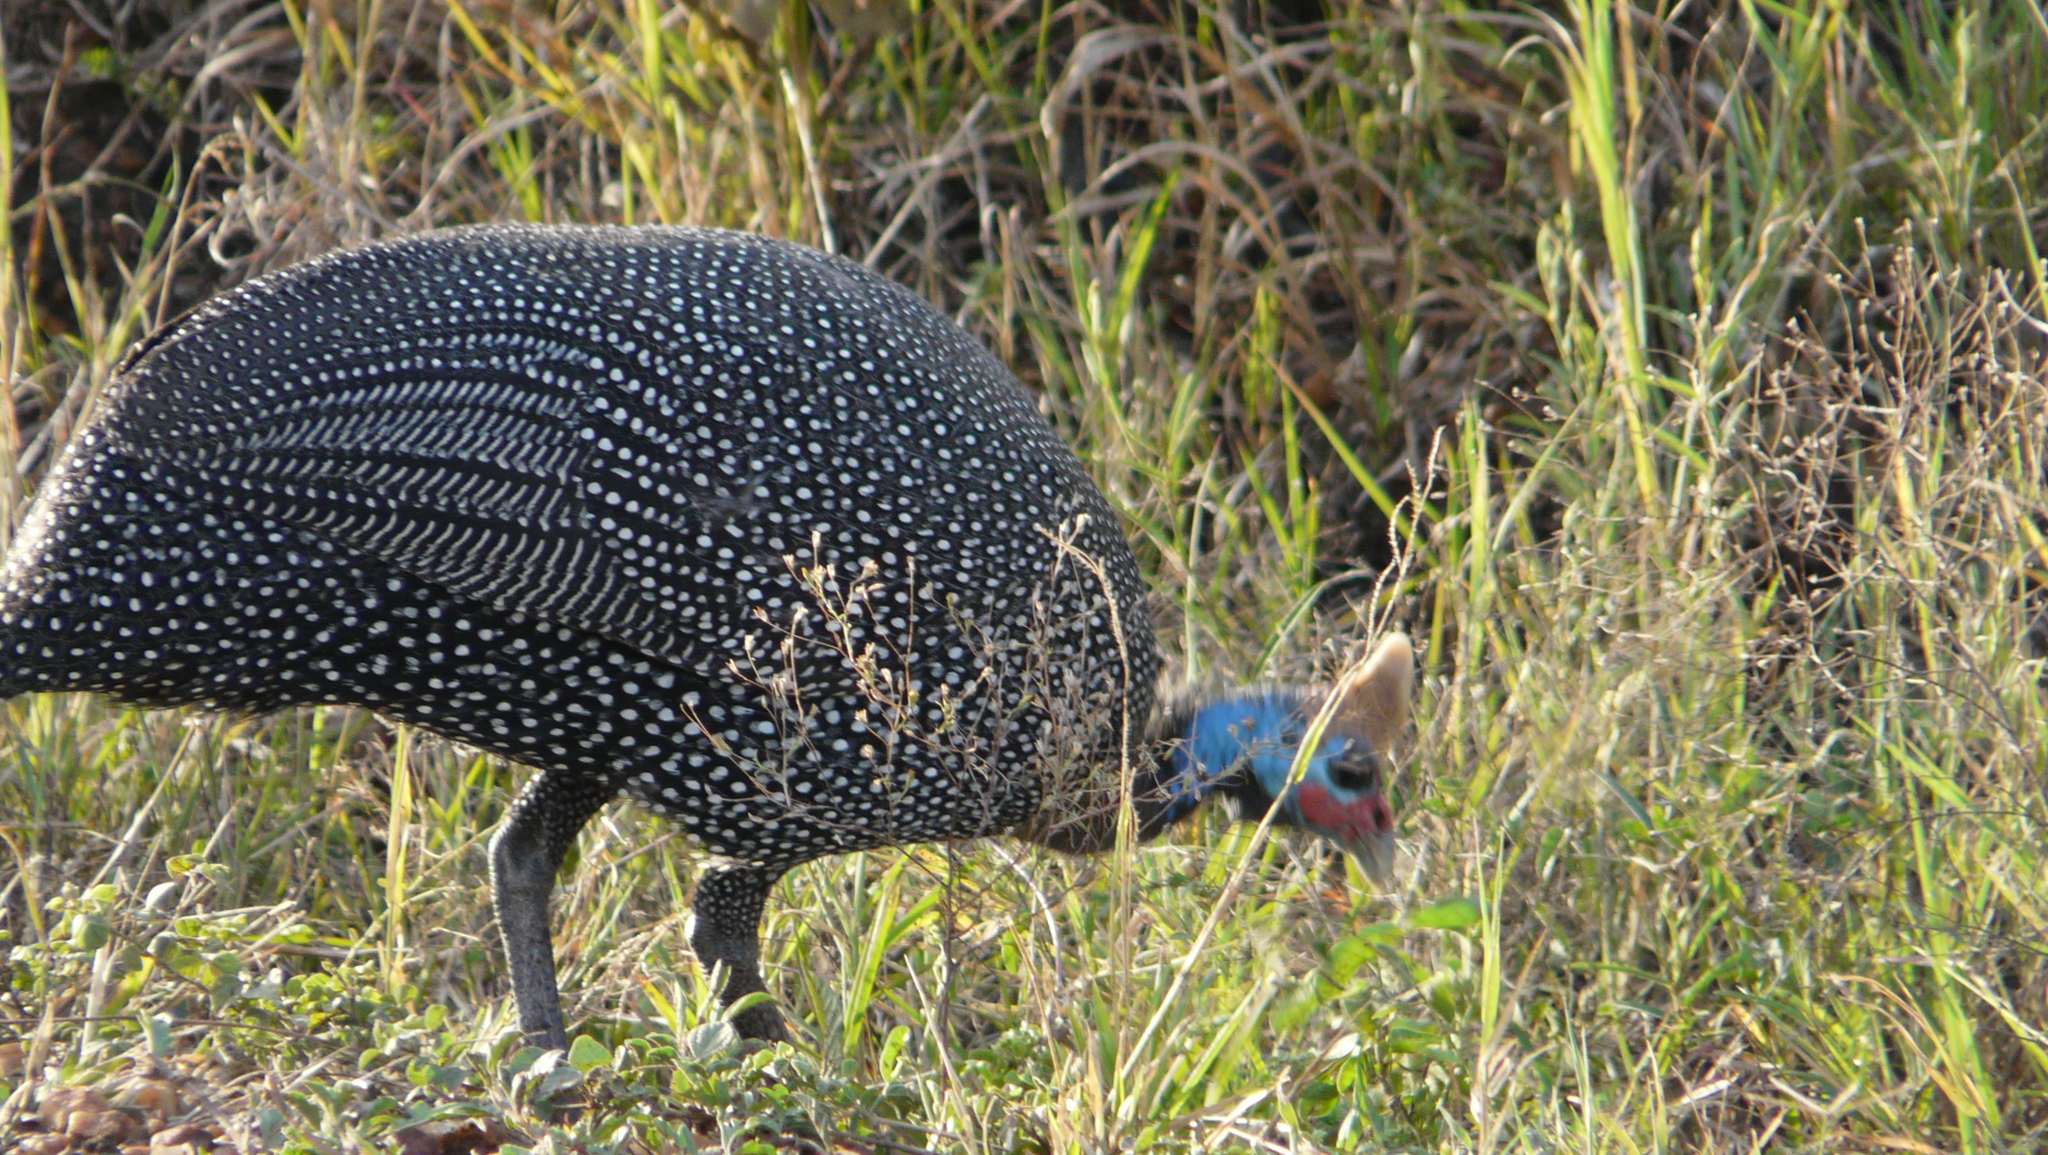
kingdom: Animalia
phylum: Chordata
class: Aves
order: Galliformes
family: Numididae
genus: Numida
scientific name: Numida meleagris
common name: Helmeted guineafowl
